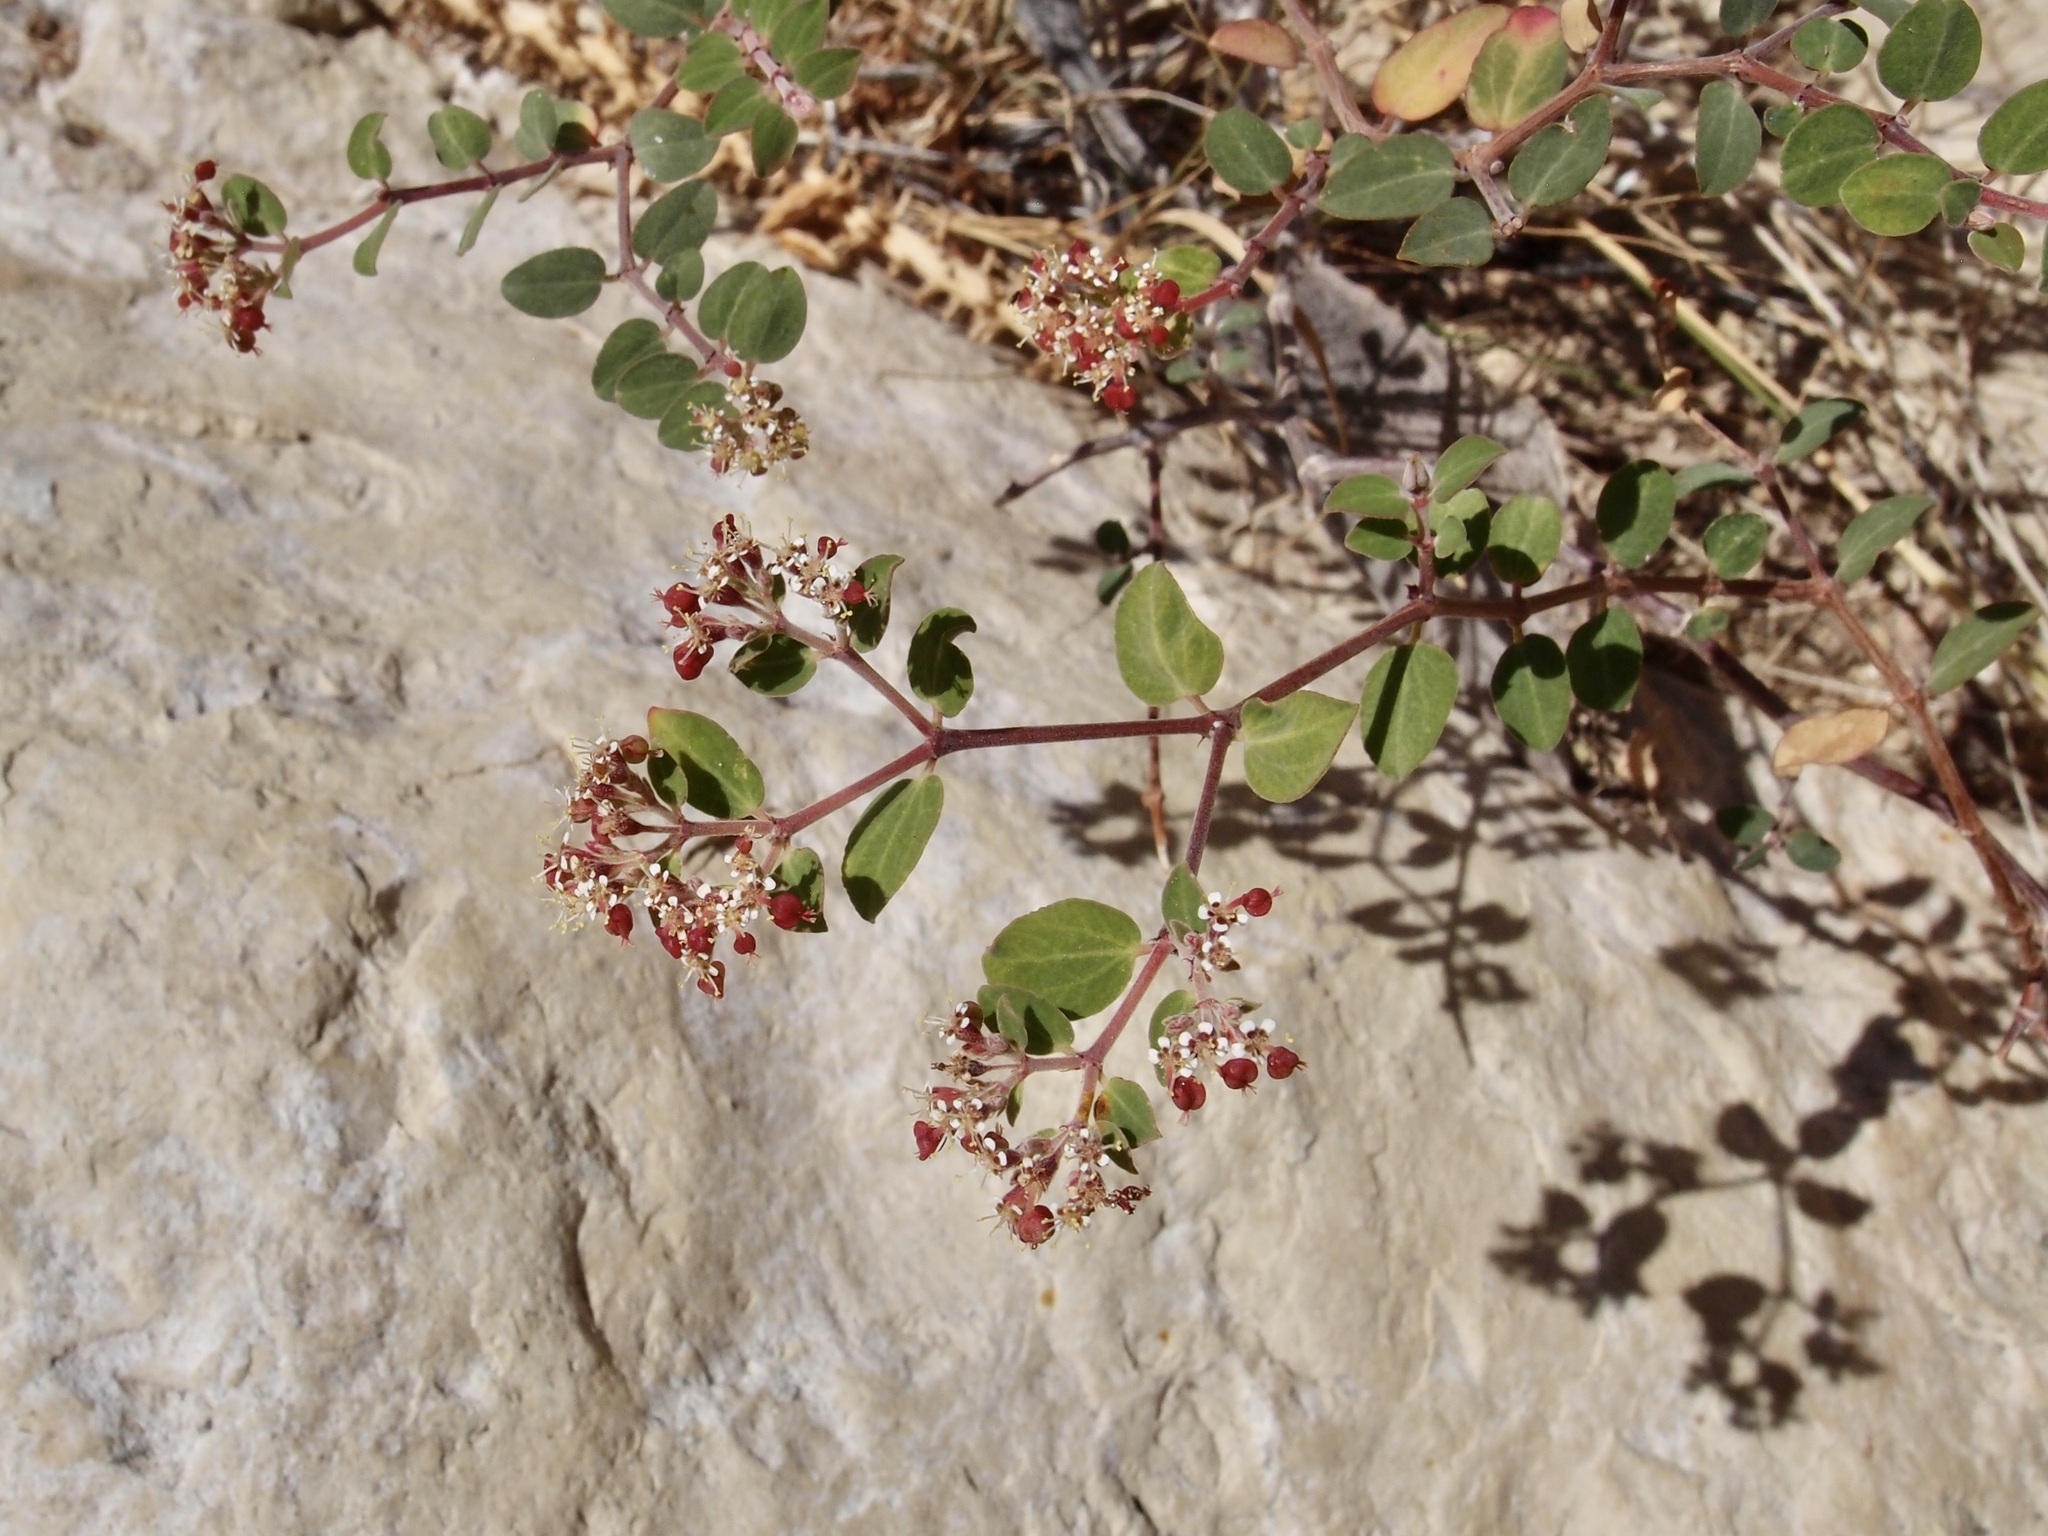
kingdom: Plantae
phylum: Tracheophyta
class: Magnoliopsida
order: Malpighiales
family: Euphorbiaceae
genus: Euphorbia
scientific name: Euphorbia tomentulosa
